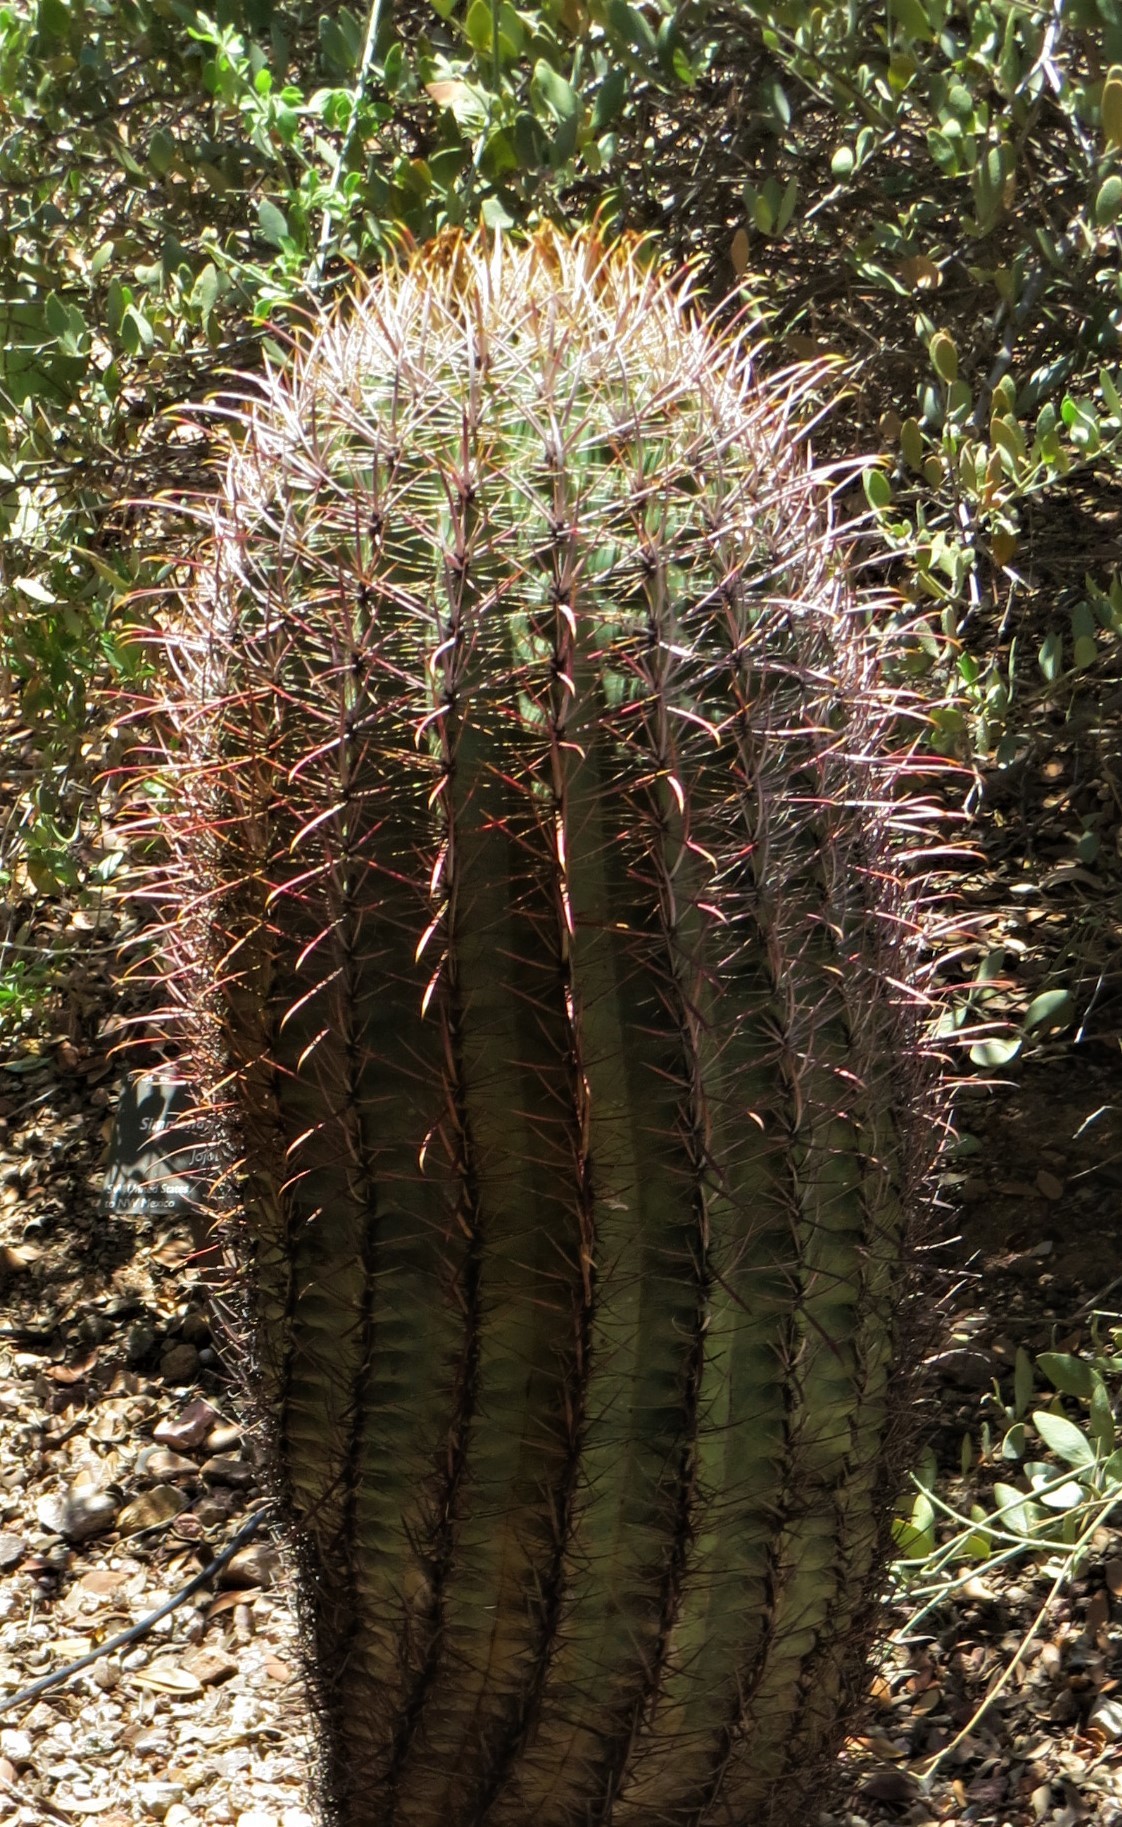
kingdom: Plantae
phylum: Tracheophyta
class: Magnoliopsida
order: Caryophyllales
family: Cactaceae
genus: Ferocactus
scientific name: Ferocactus cylindraceus
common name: California barrel cactus
